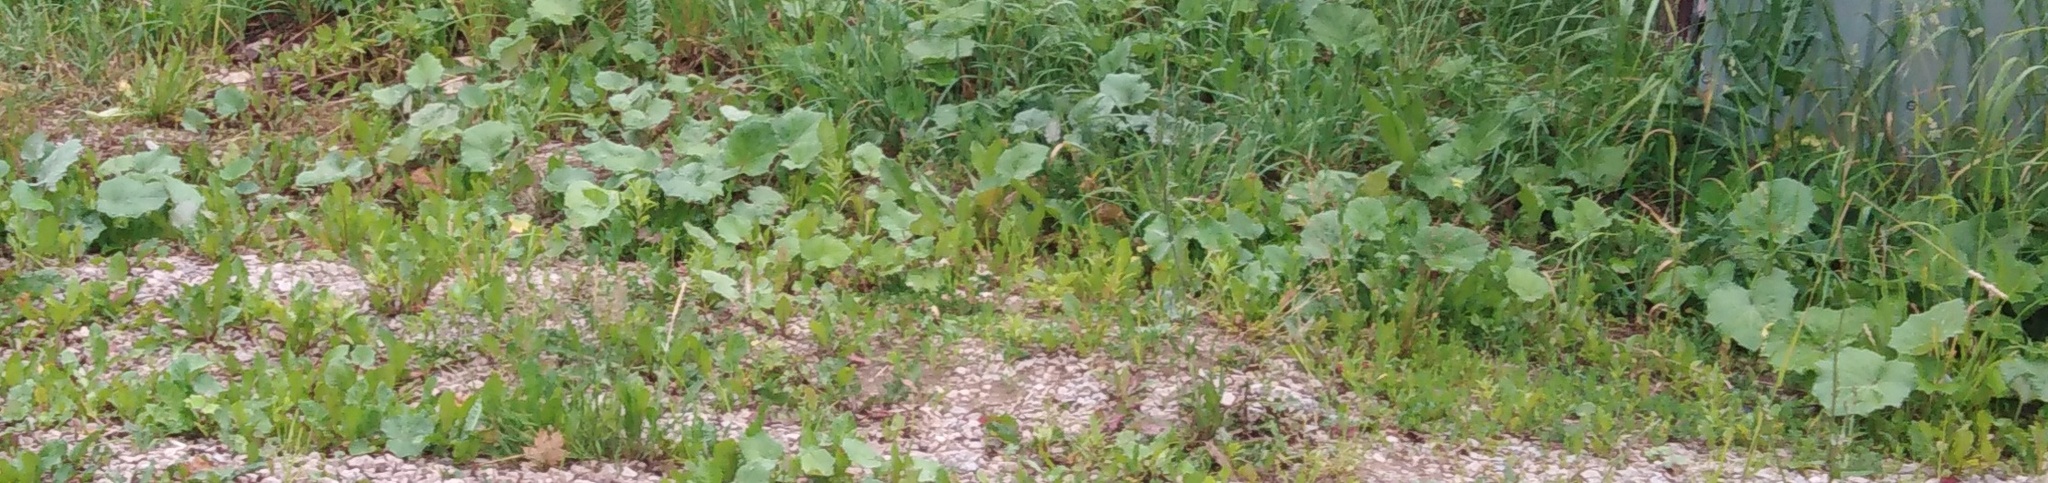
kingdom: Plantae
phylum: Tracheophyta
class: Magnoliopsida
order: Asterales
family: Asteraceae
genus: Tussilago
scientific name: Tussilago farfara
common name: Coltsfoot
